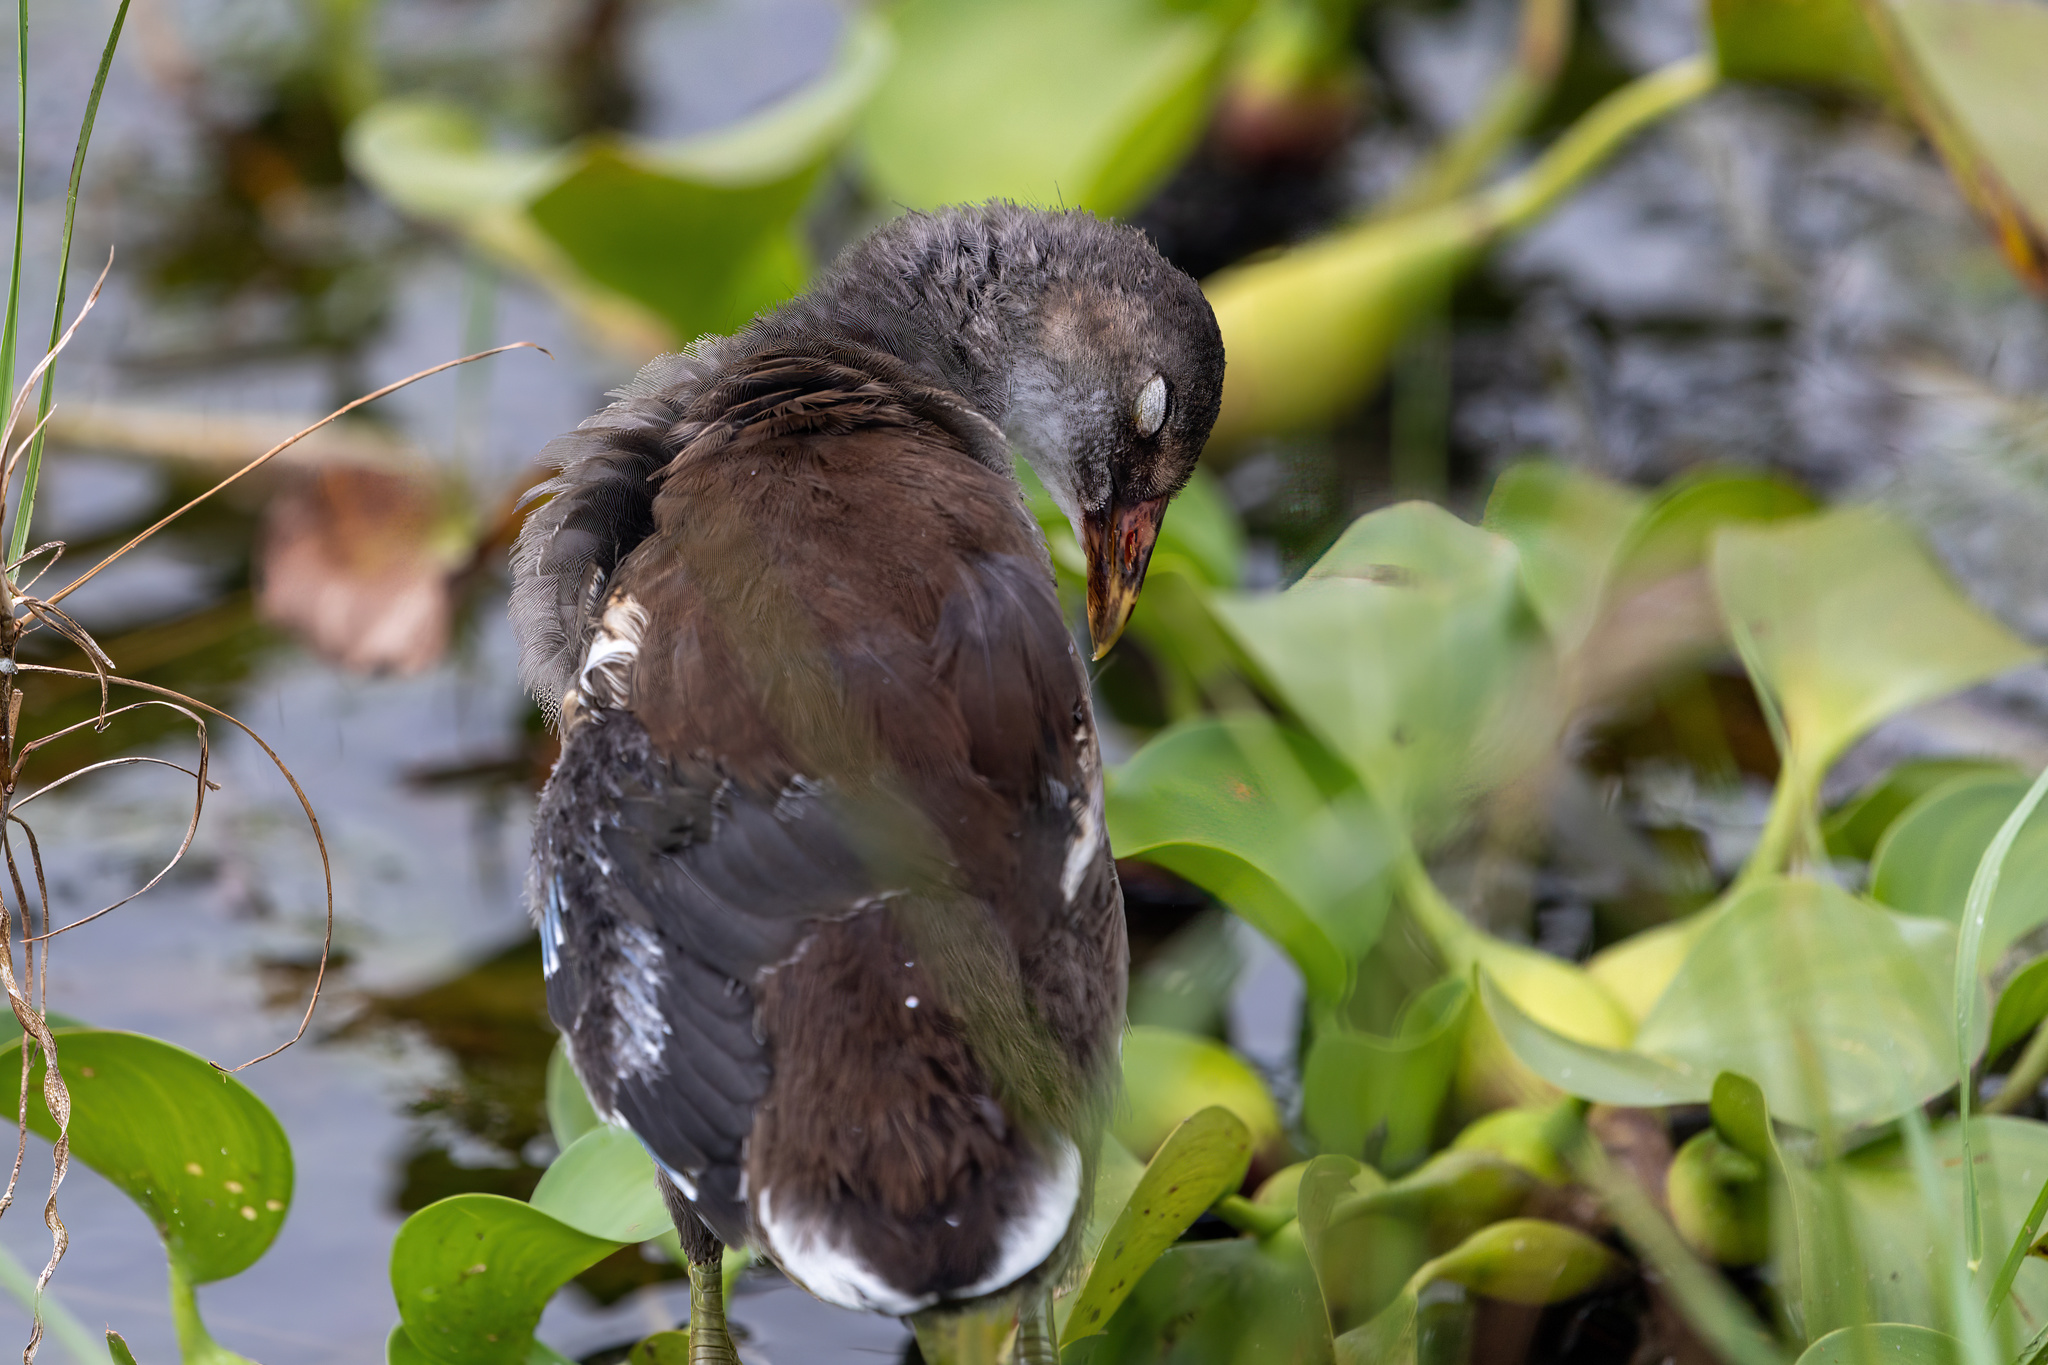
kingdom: Animalia
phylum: Chordata
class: Aves
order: Gruiformes
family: Rallidae
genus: Gallinula
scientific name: Gallinula chloropus
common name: Common moorhen
